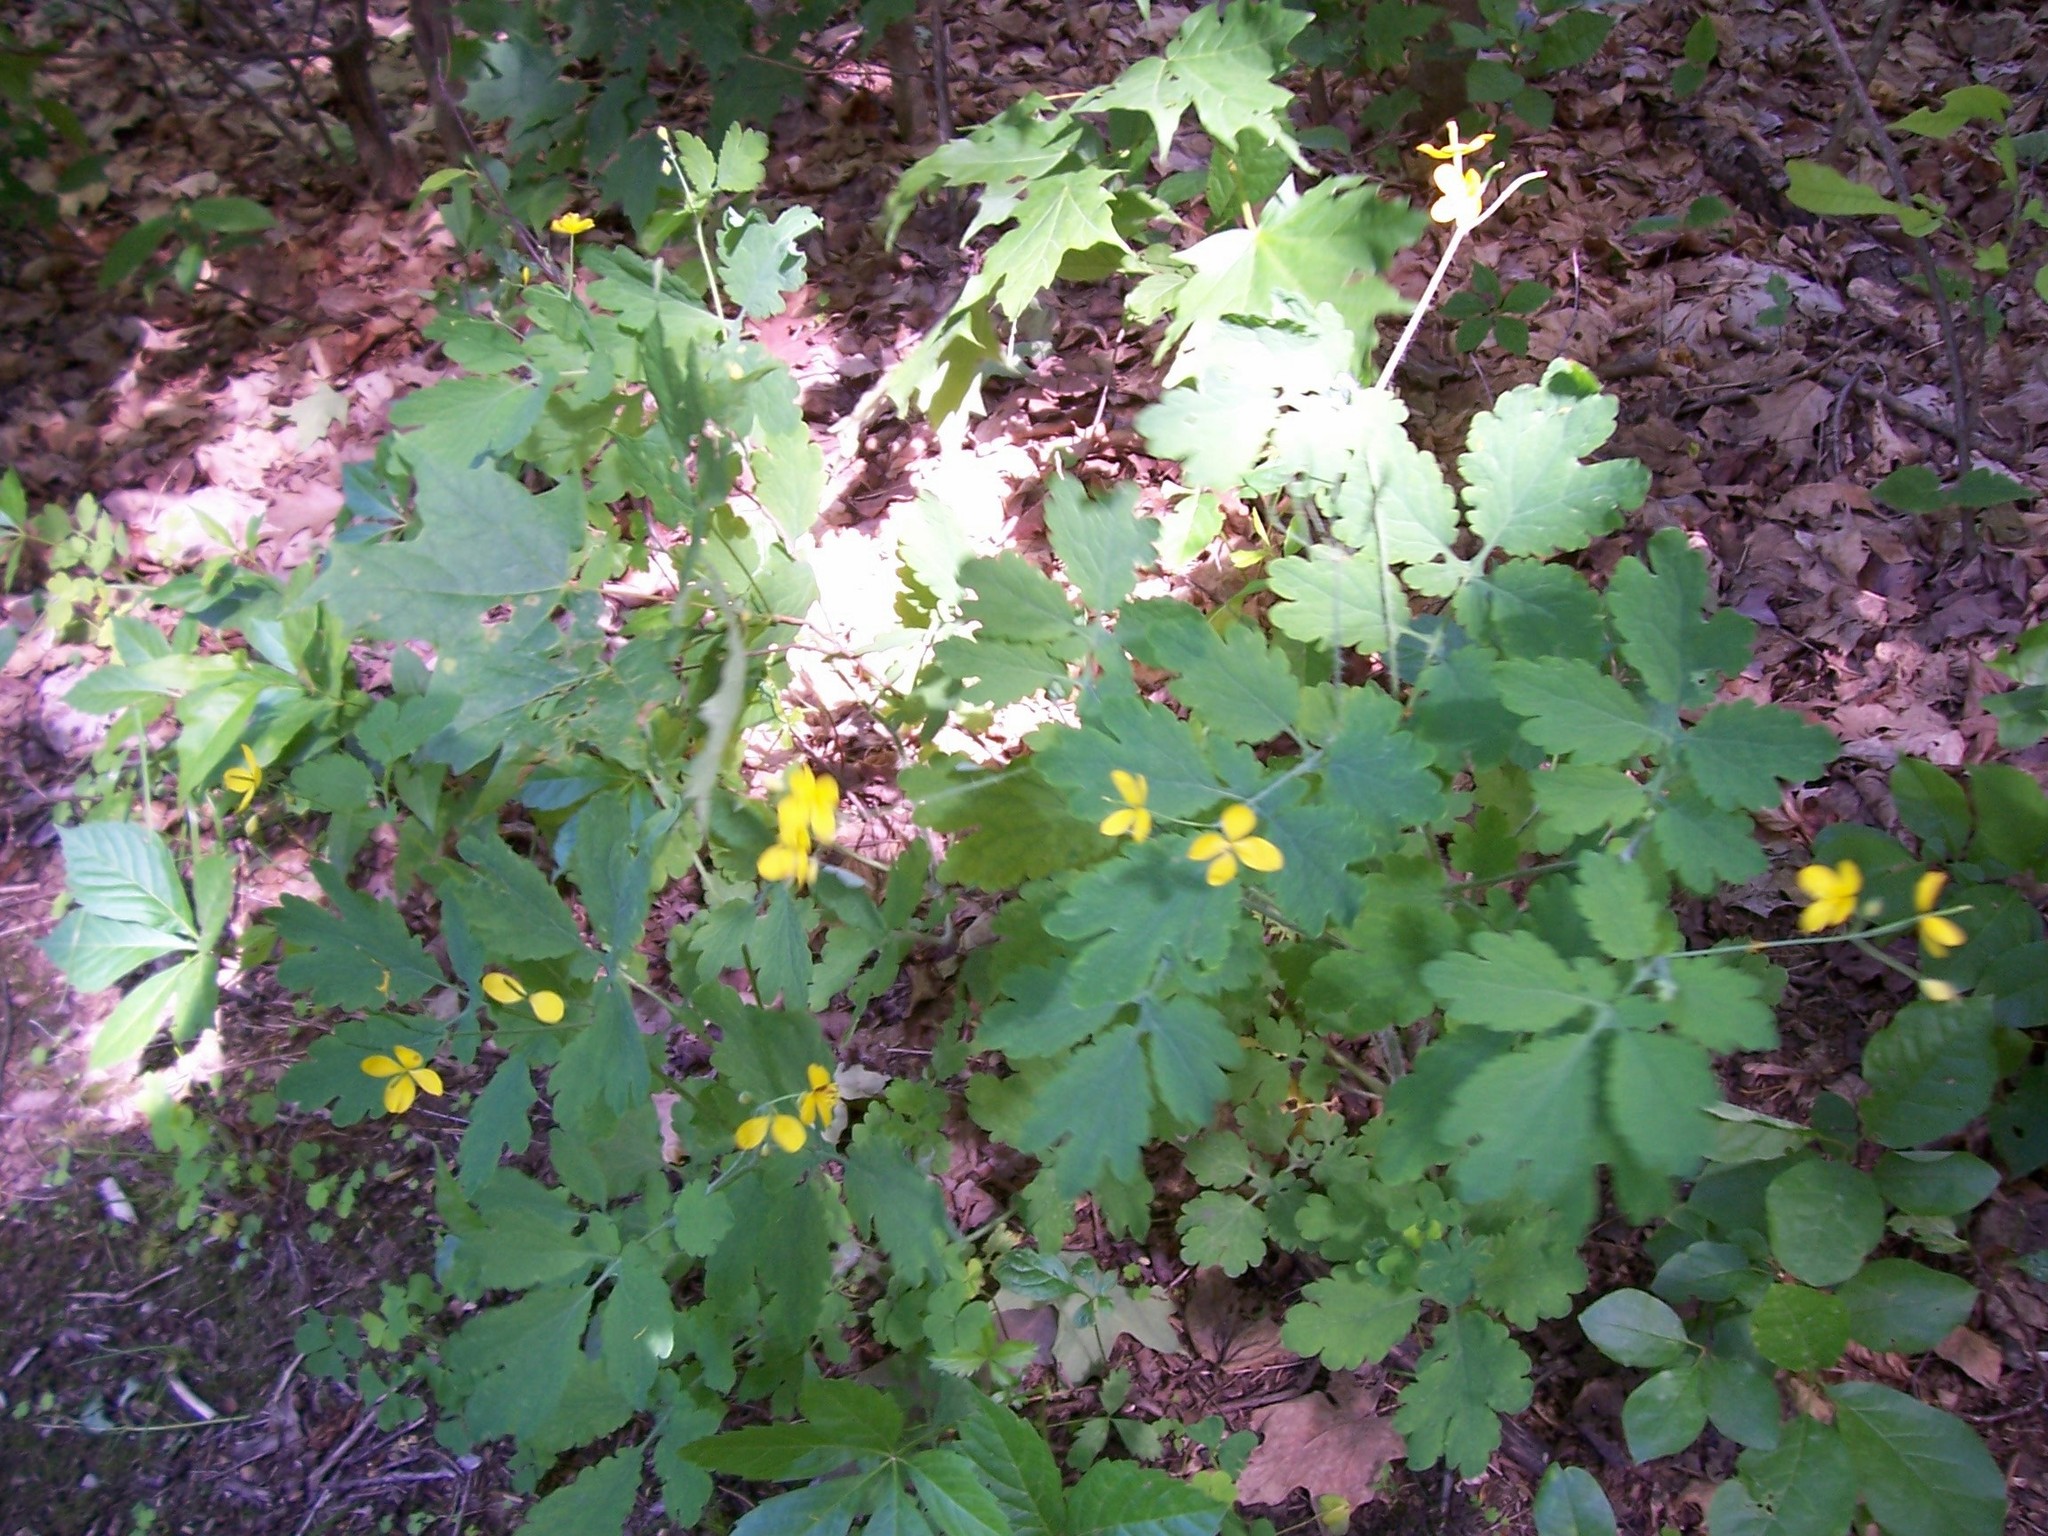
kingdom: Plantae
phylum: Tracheophyta
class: Magnoliopsida
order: Ranunculales
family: Papaveraceae
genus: Chelidonium
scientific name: Chelidonium majus
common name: Greater celandine
